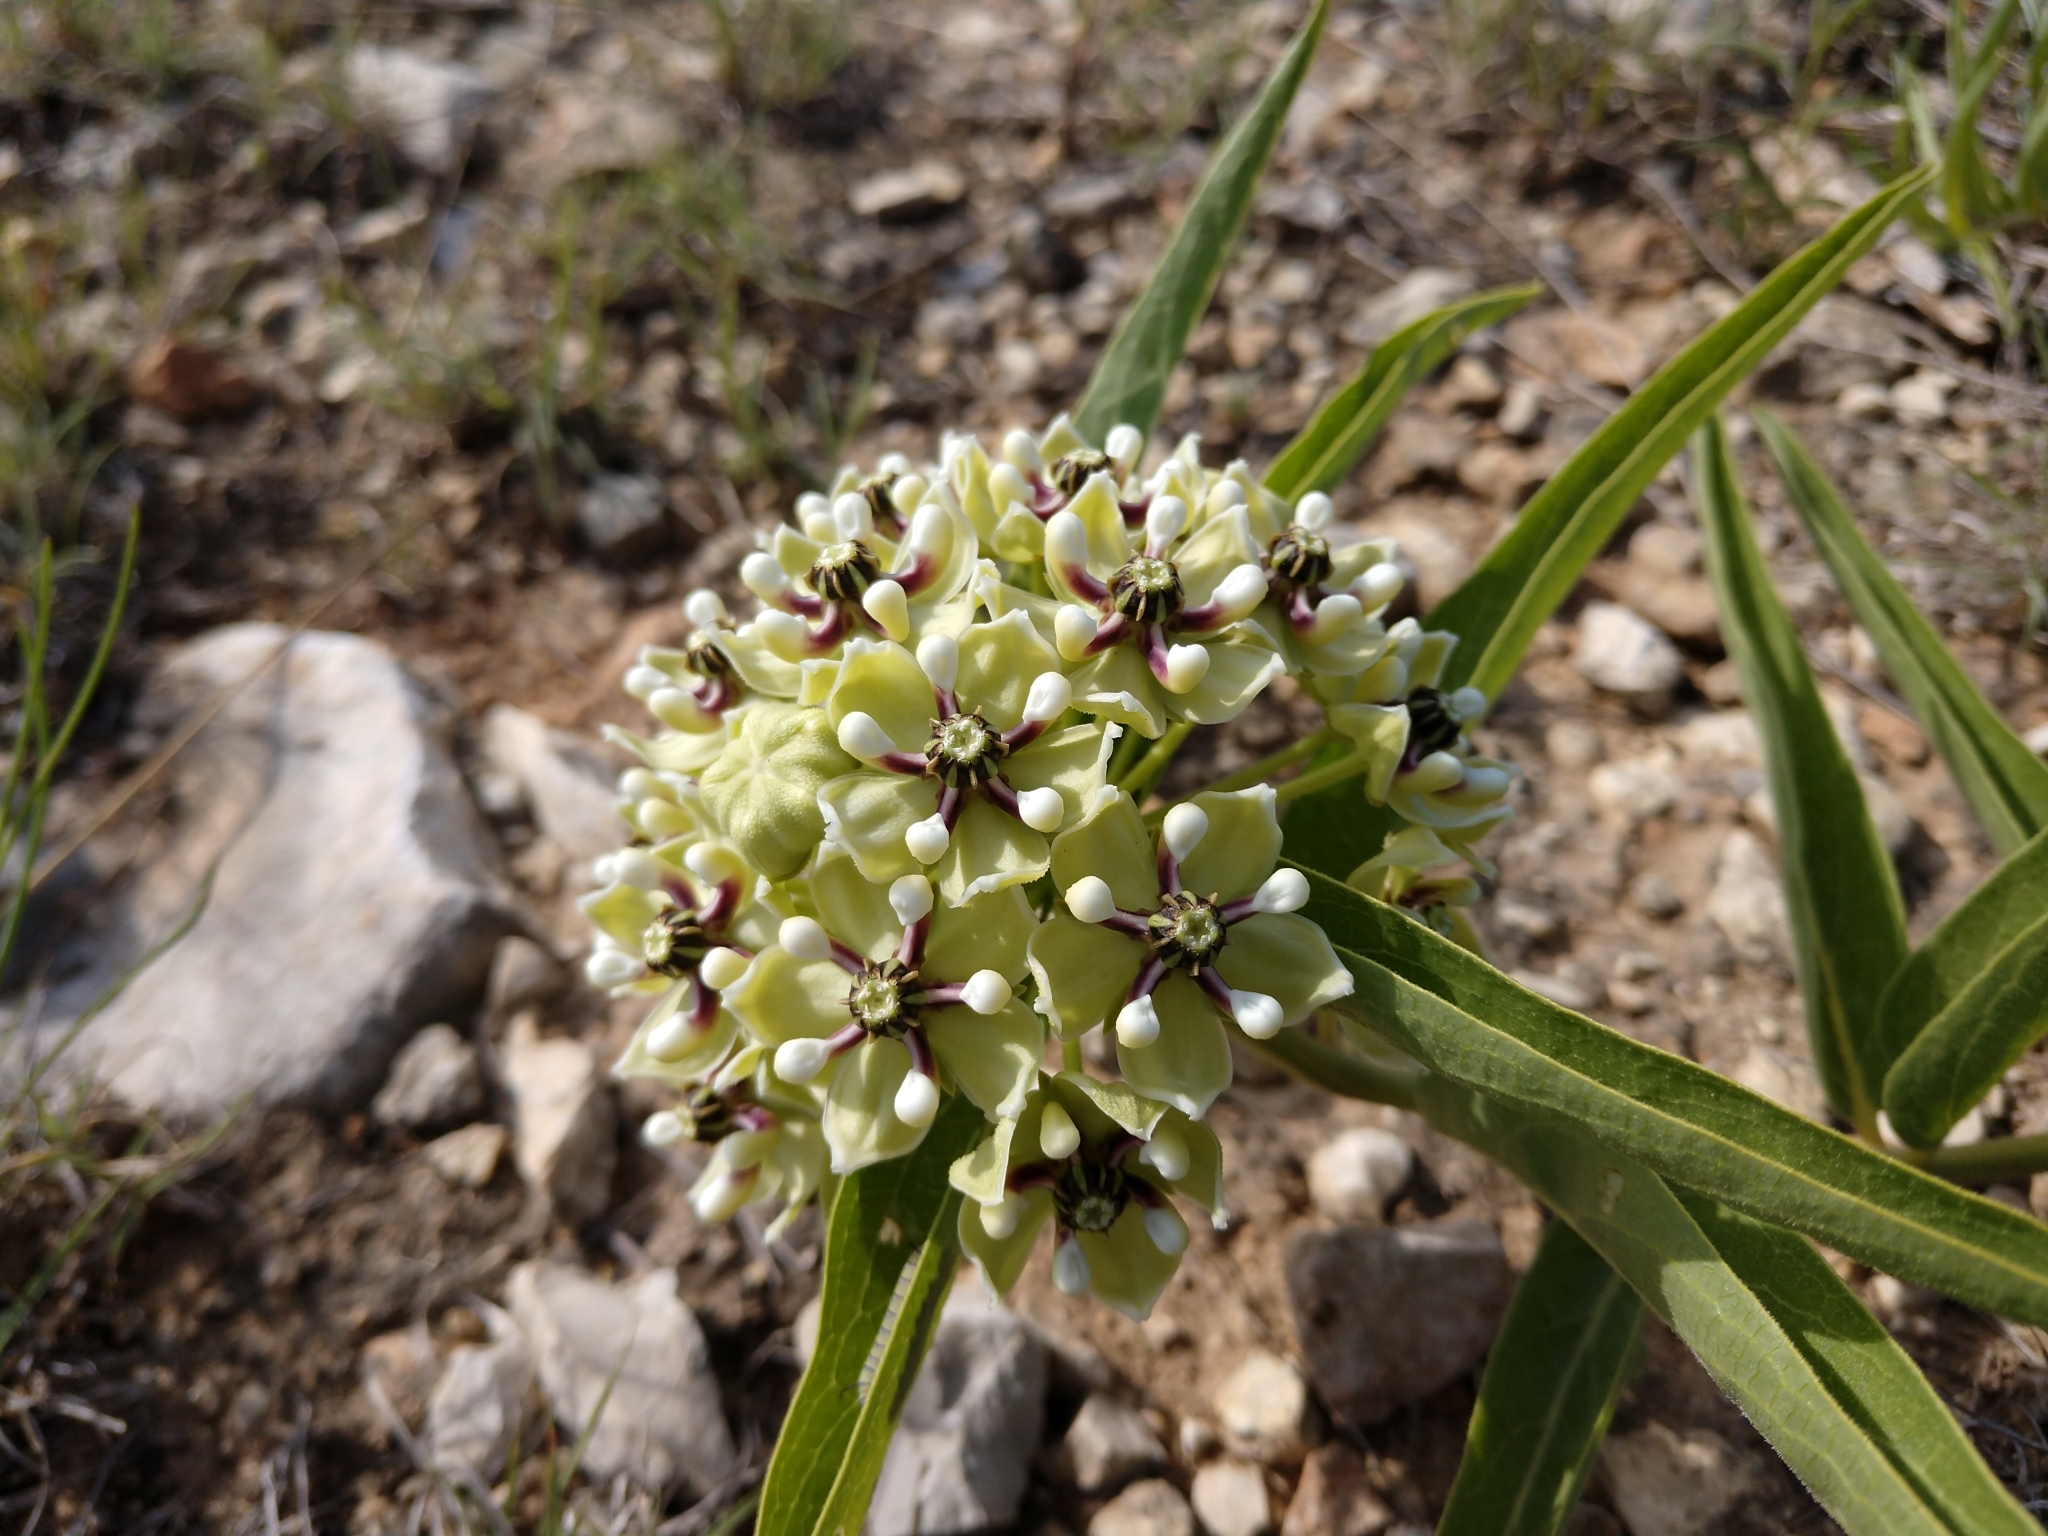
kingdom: Plantae
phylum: Tracheophyta
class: Magnoliopsida
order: Gentianales
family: Apocynaceae
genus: Asclepias
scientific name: Asclepias asperula
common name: Antelope horns
